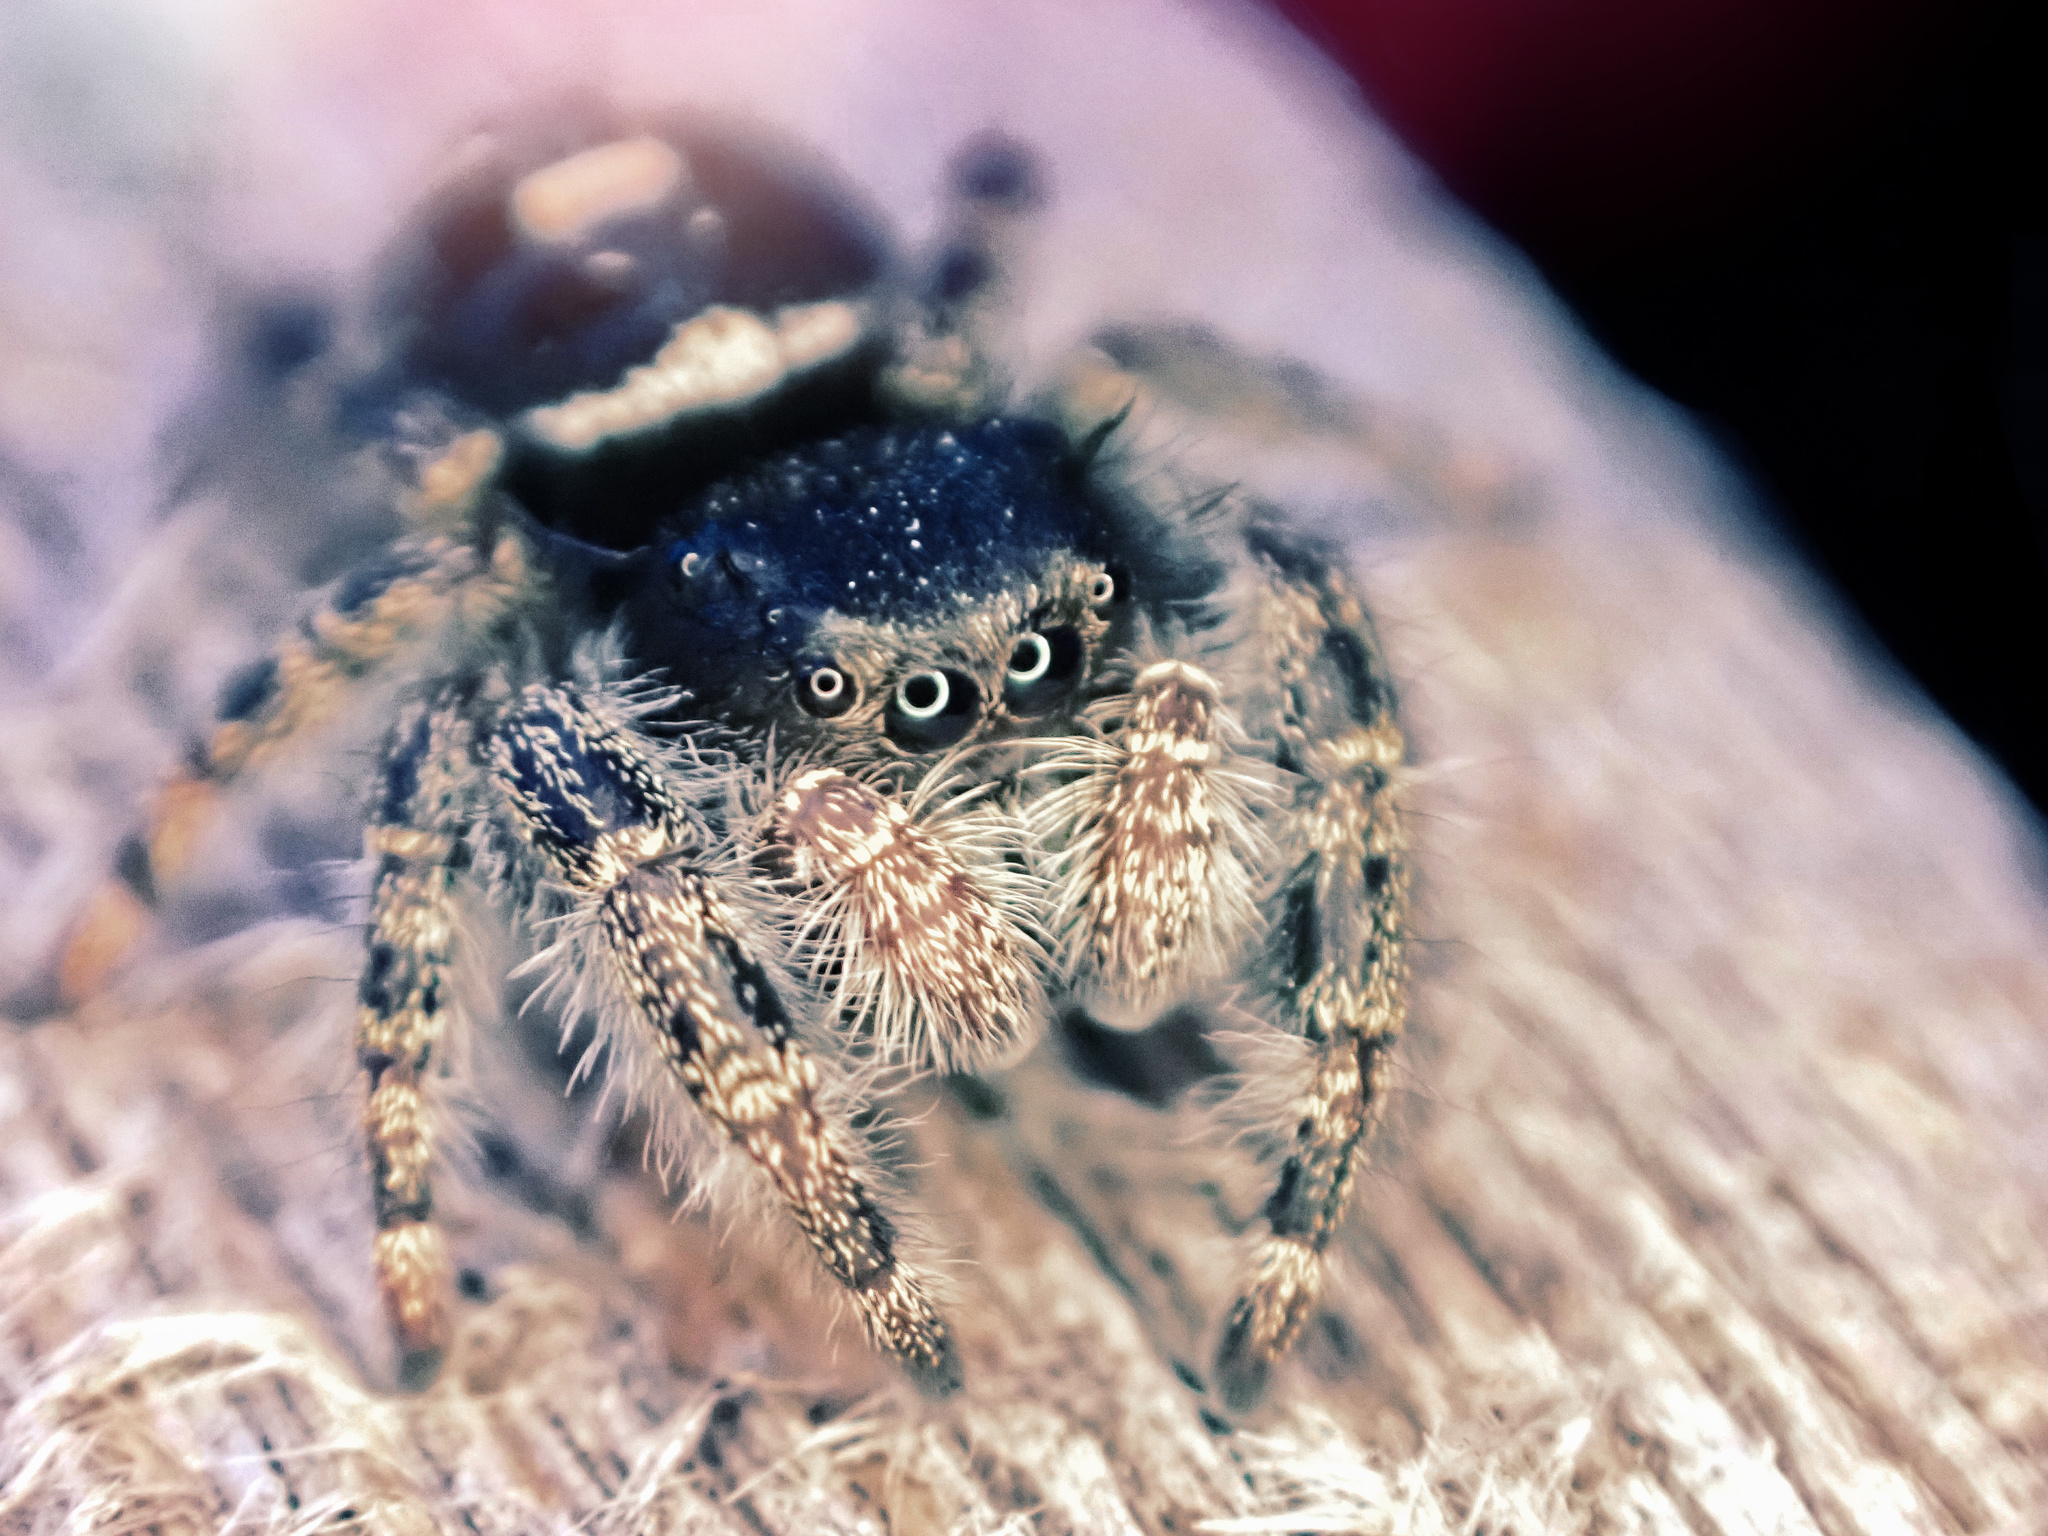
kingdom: Animalia
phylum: Arthropoda
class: Arachnida
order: Araneae
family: Salticidae
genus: Phidippus
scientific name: Phidippus audax
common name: Bold jumper
